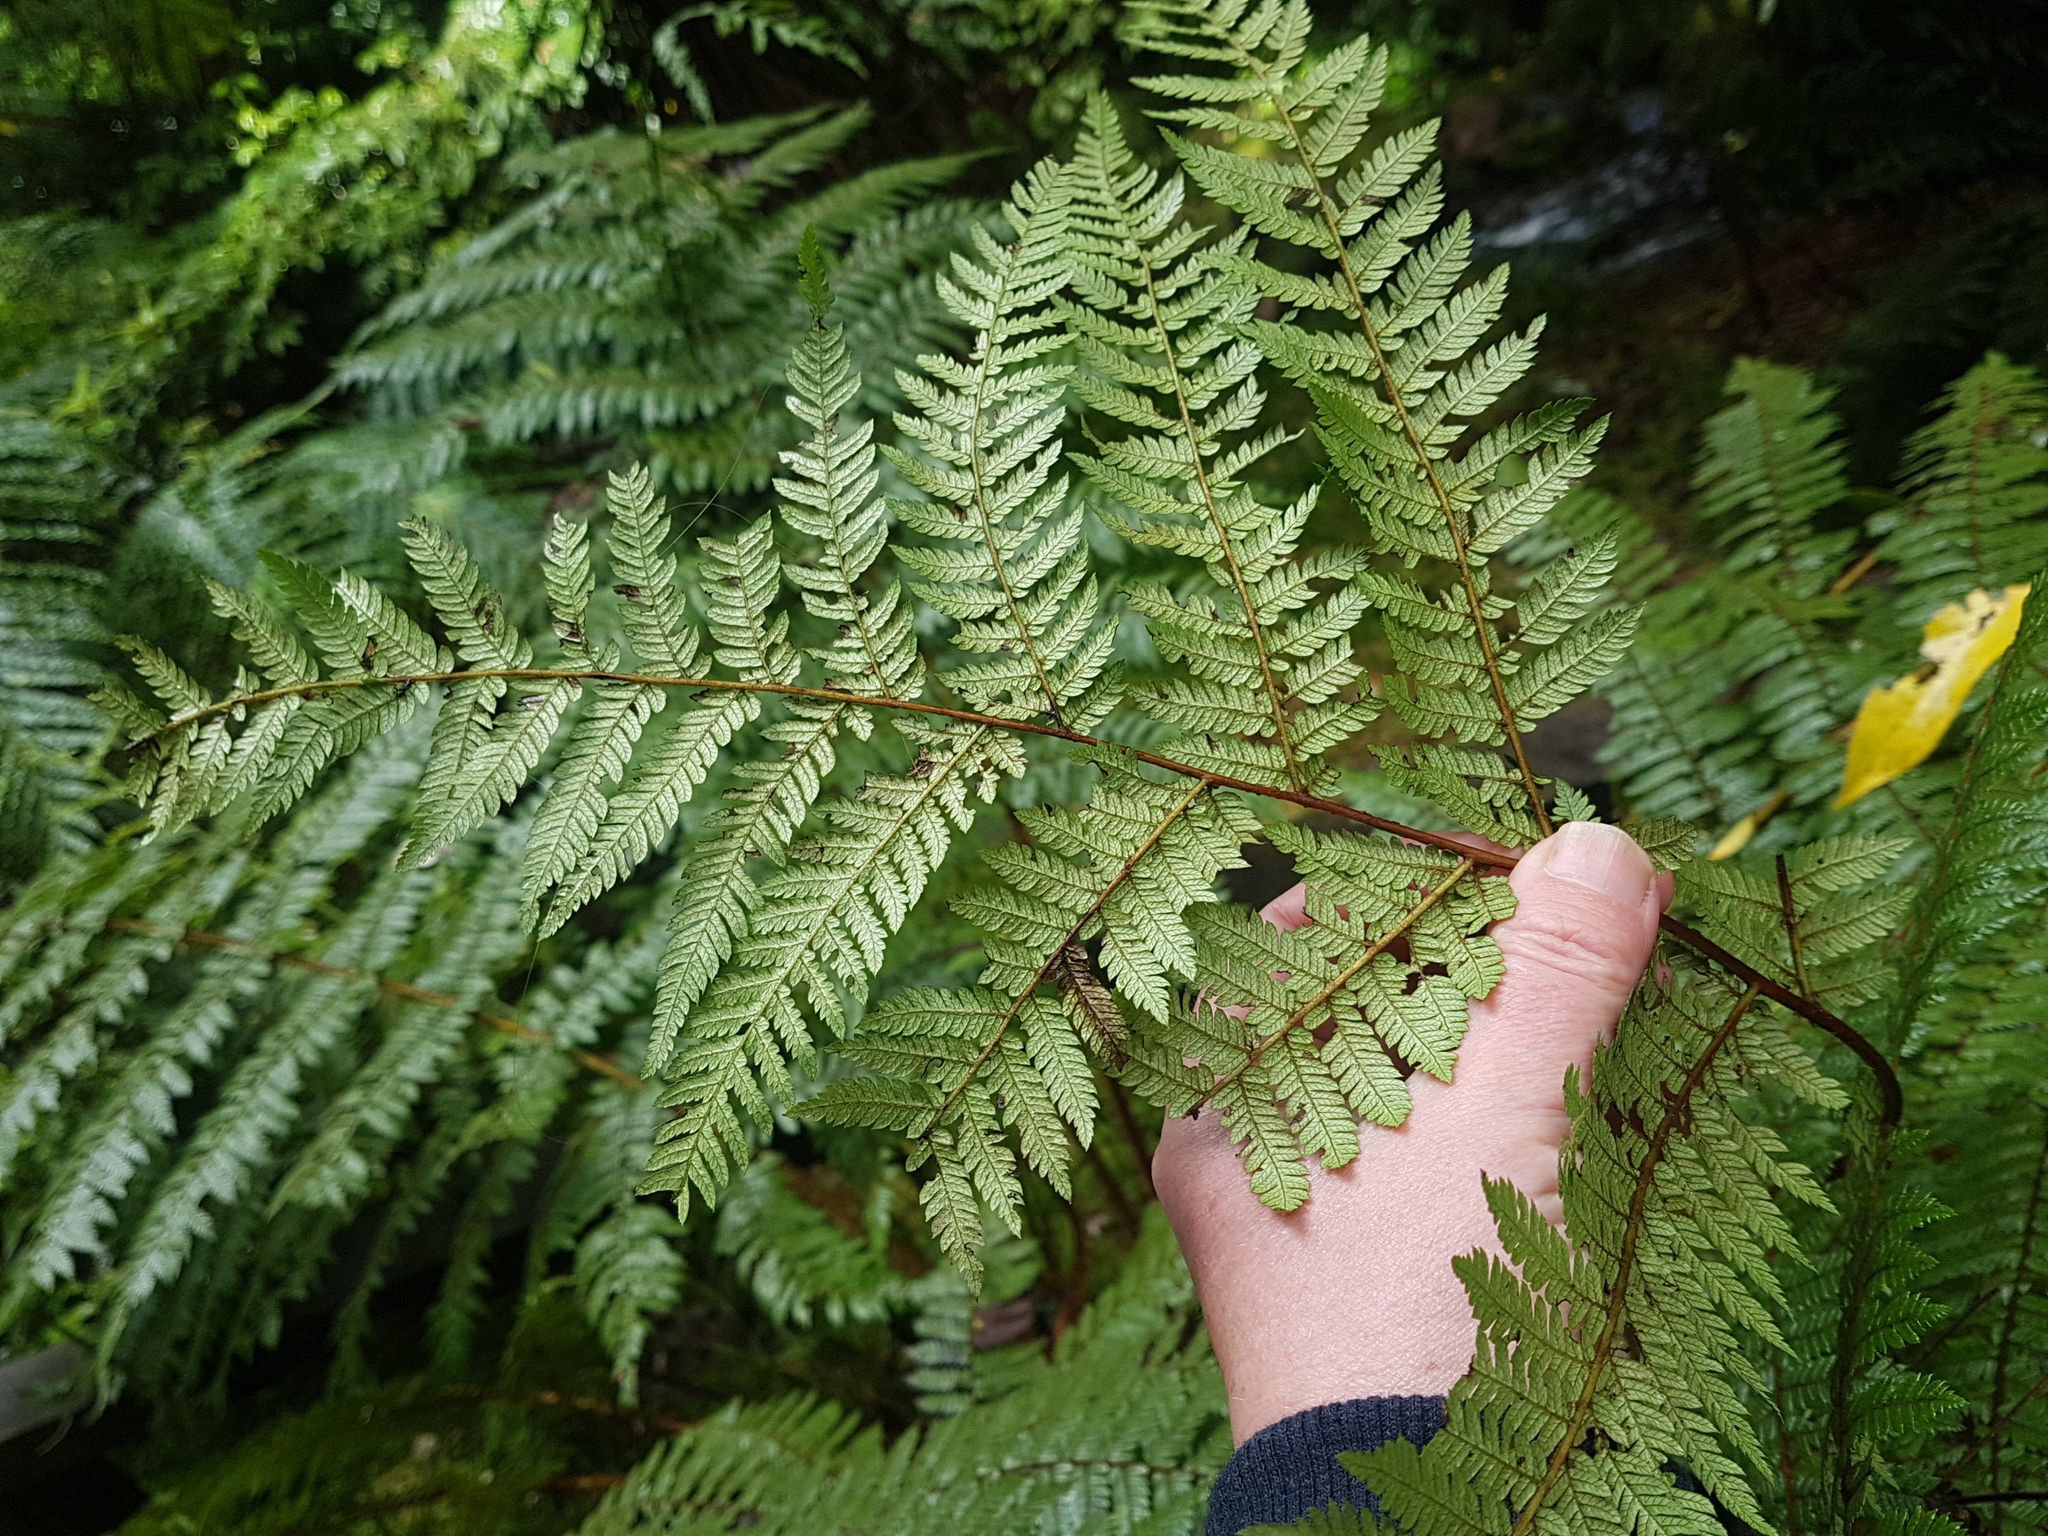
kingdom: Plantae
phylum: Tracheophyta
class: Polypodiopsida
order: Cyatheales
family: Cyatheaceae
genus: Alsophila
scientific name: Alsophila smithii
